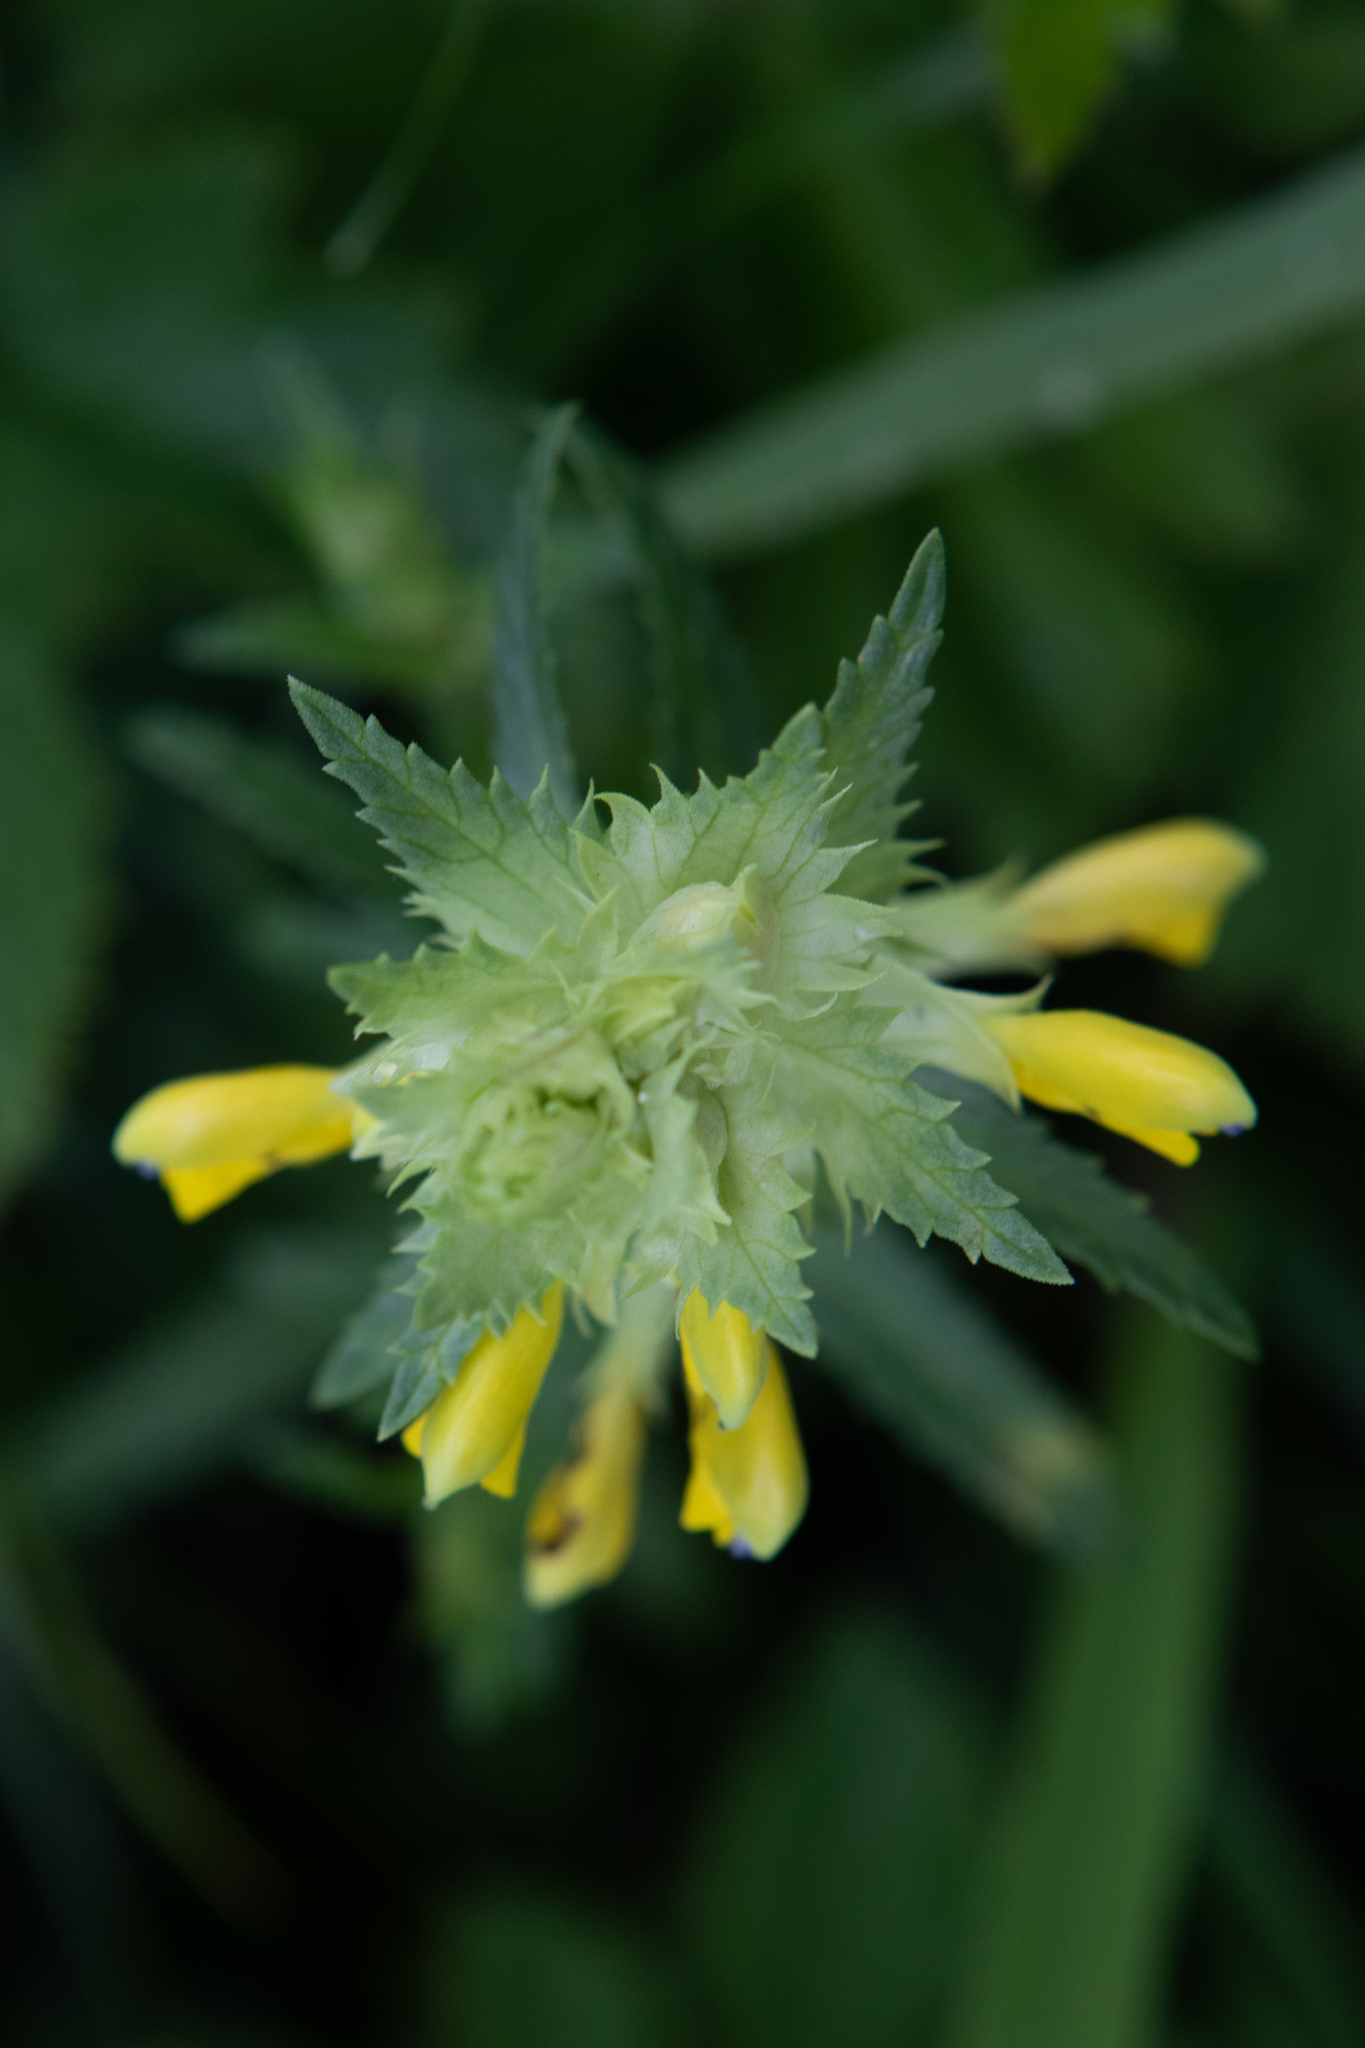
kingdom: Plantae
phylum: Tracheophyta
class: Magnoliopsida
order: Lamiales
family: Orobanchaceae
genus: Rhinanthus
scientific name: Rhinanthus serotinus
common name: Late-flowering yellow rattle
